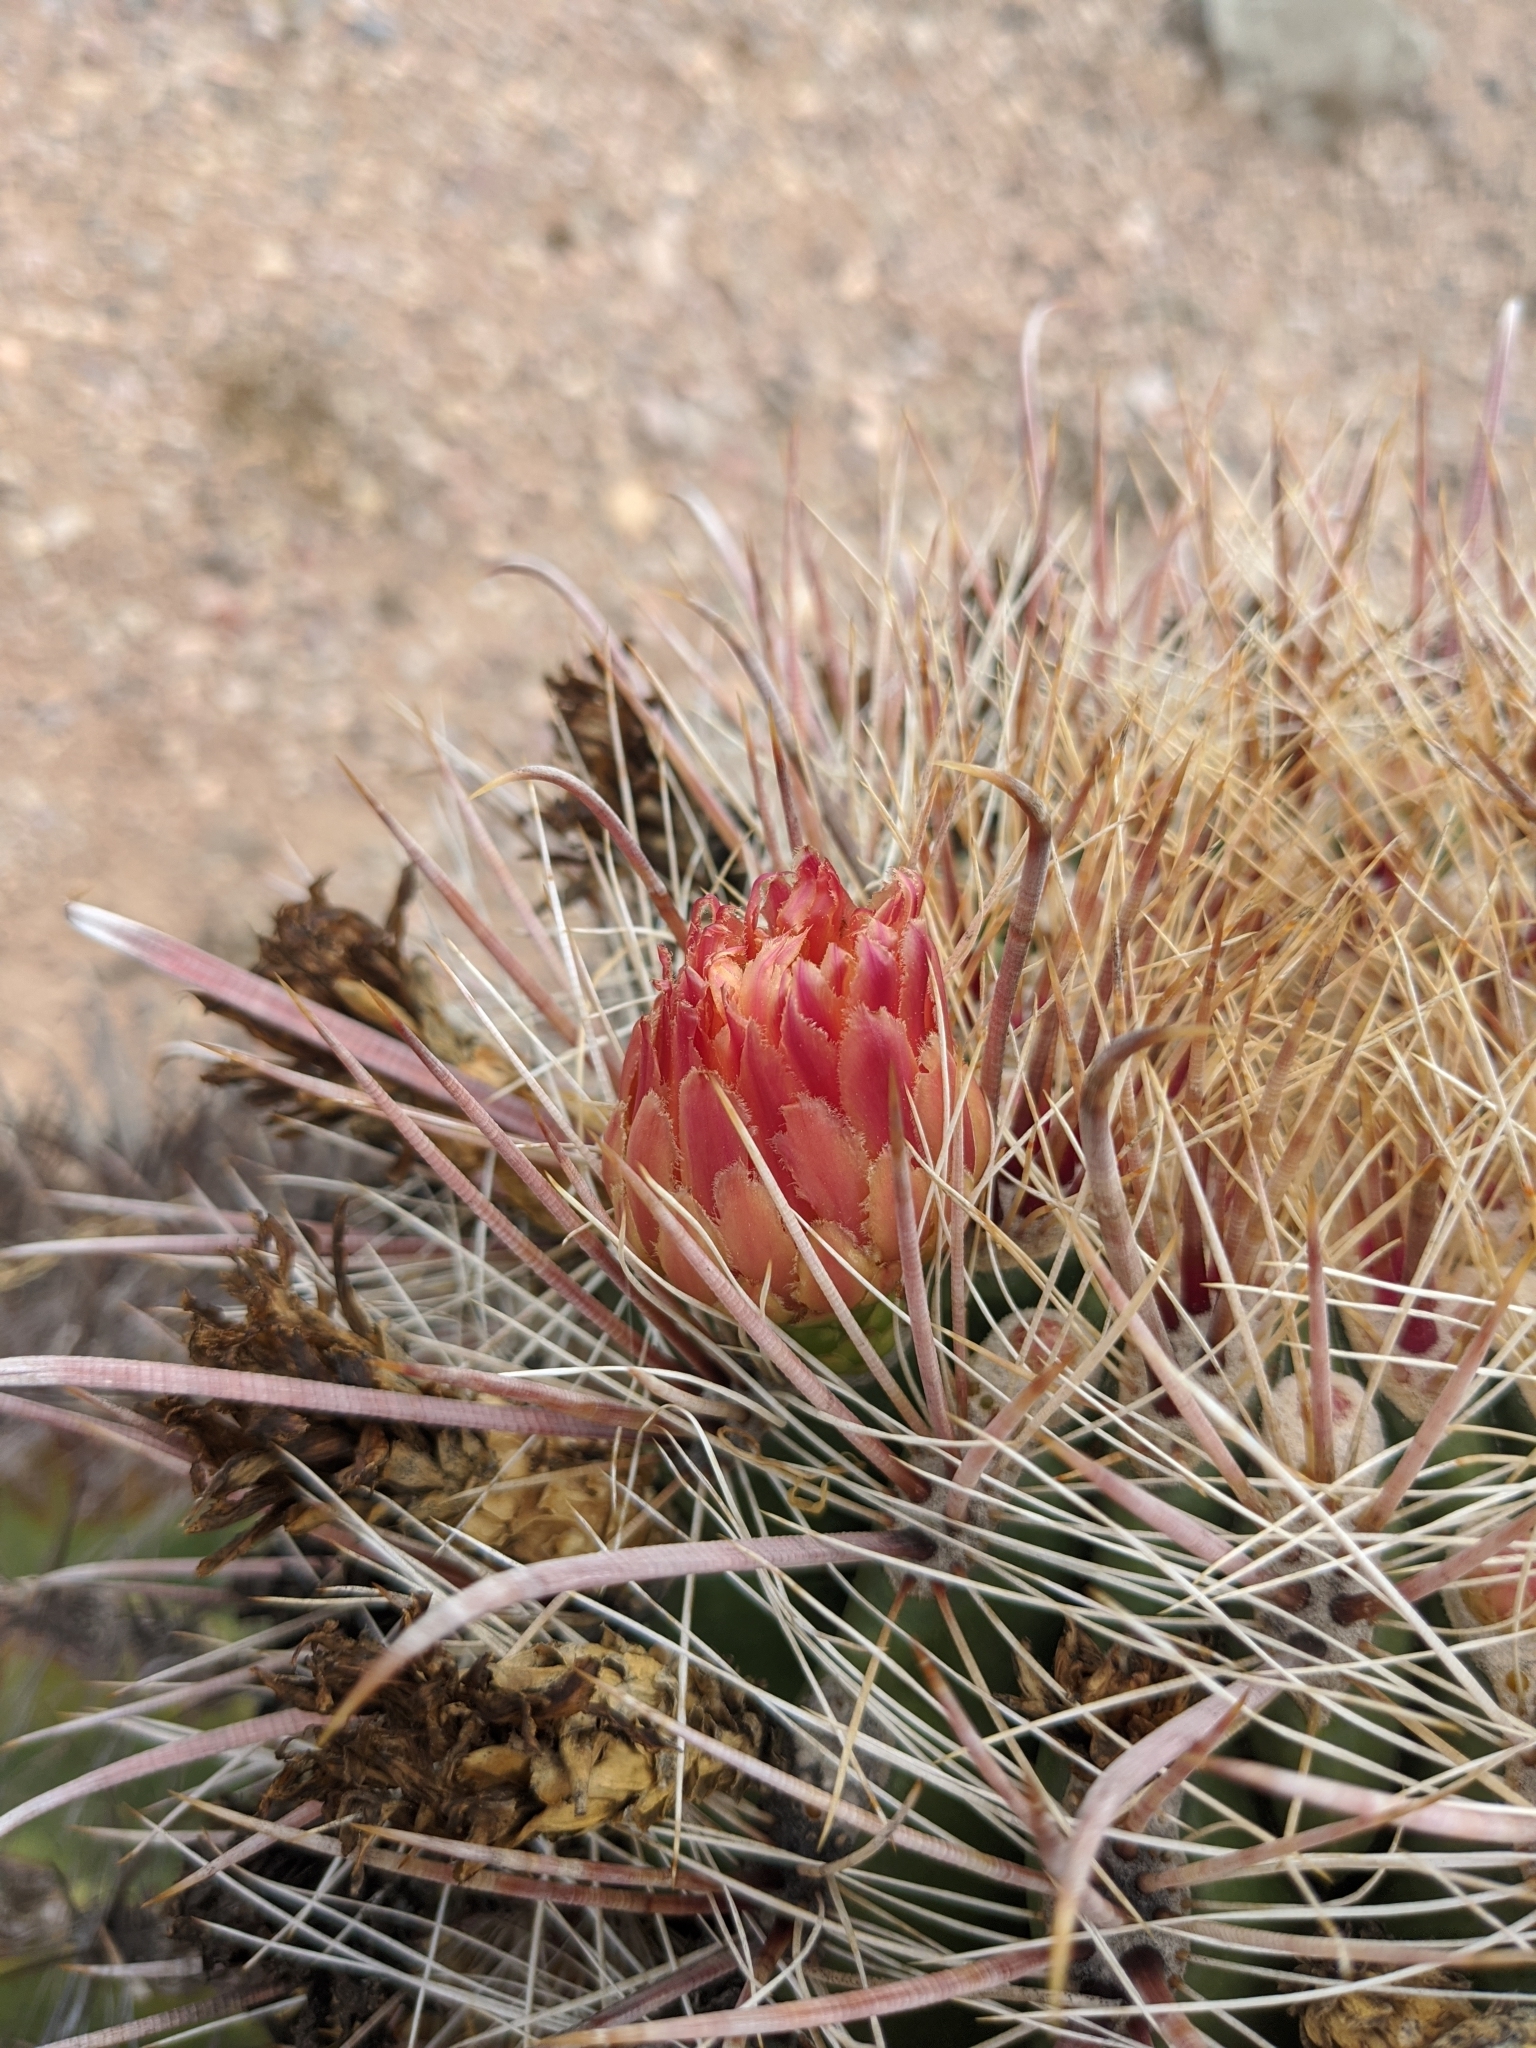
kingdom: Plantae
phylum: Tracheophyta
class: Magnoliopsida
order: Caryophyllales
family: Cactaceae
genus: Ferocactus
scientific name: Ferocactus wislizeni
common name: Candy barrel cactus
